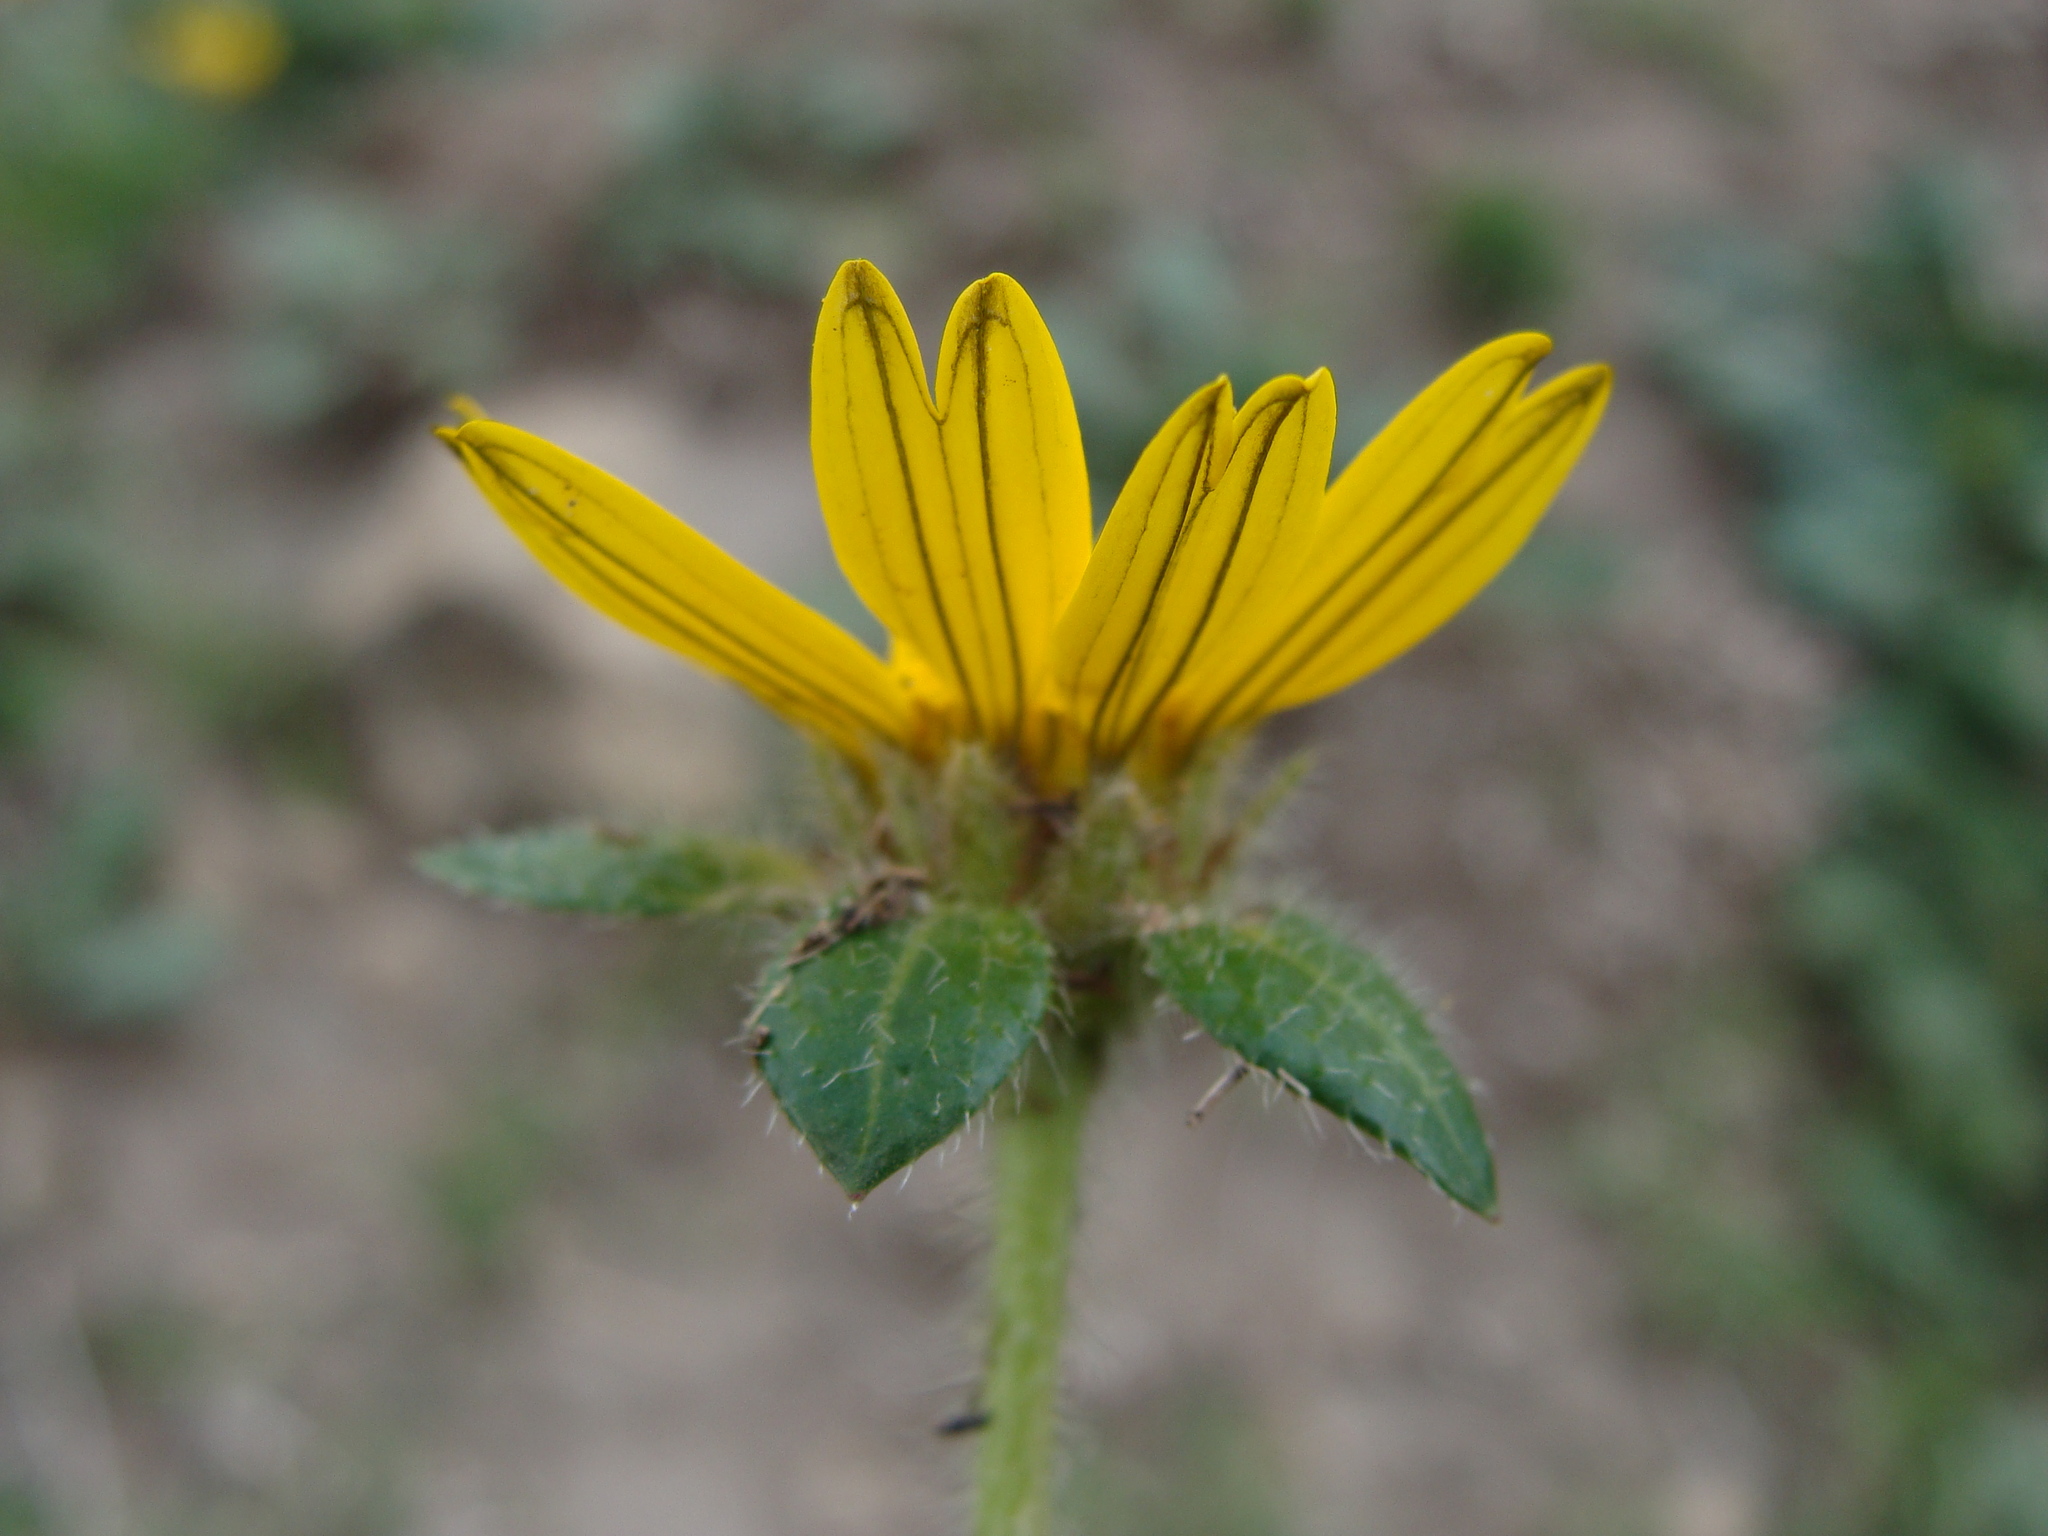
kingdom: Plantae
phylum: Tracheophyta
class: Magnoliopsida
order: Asterales
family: Asteraceae
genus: Dugesia
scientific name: Dugesia mexicana
